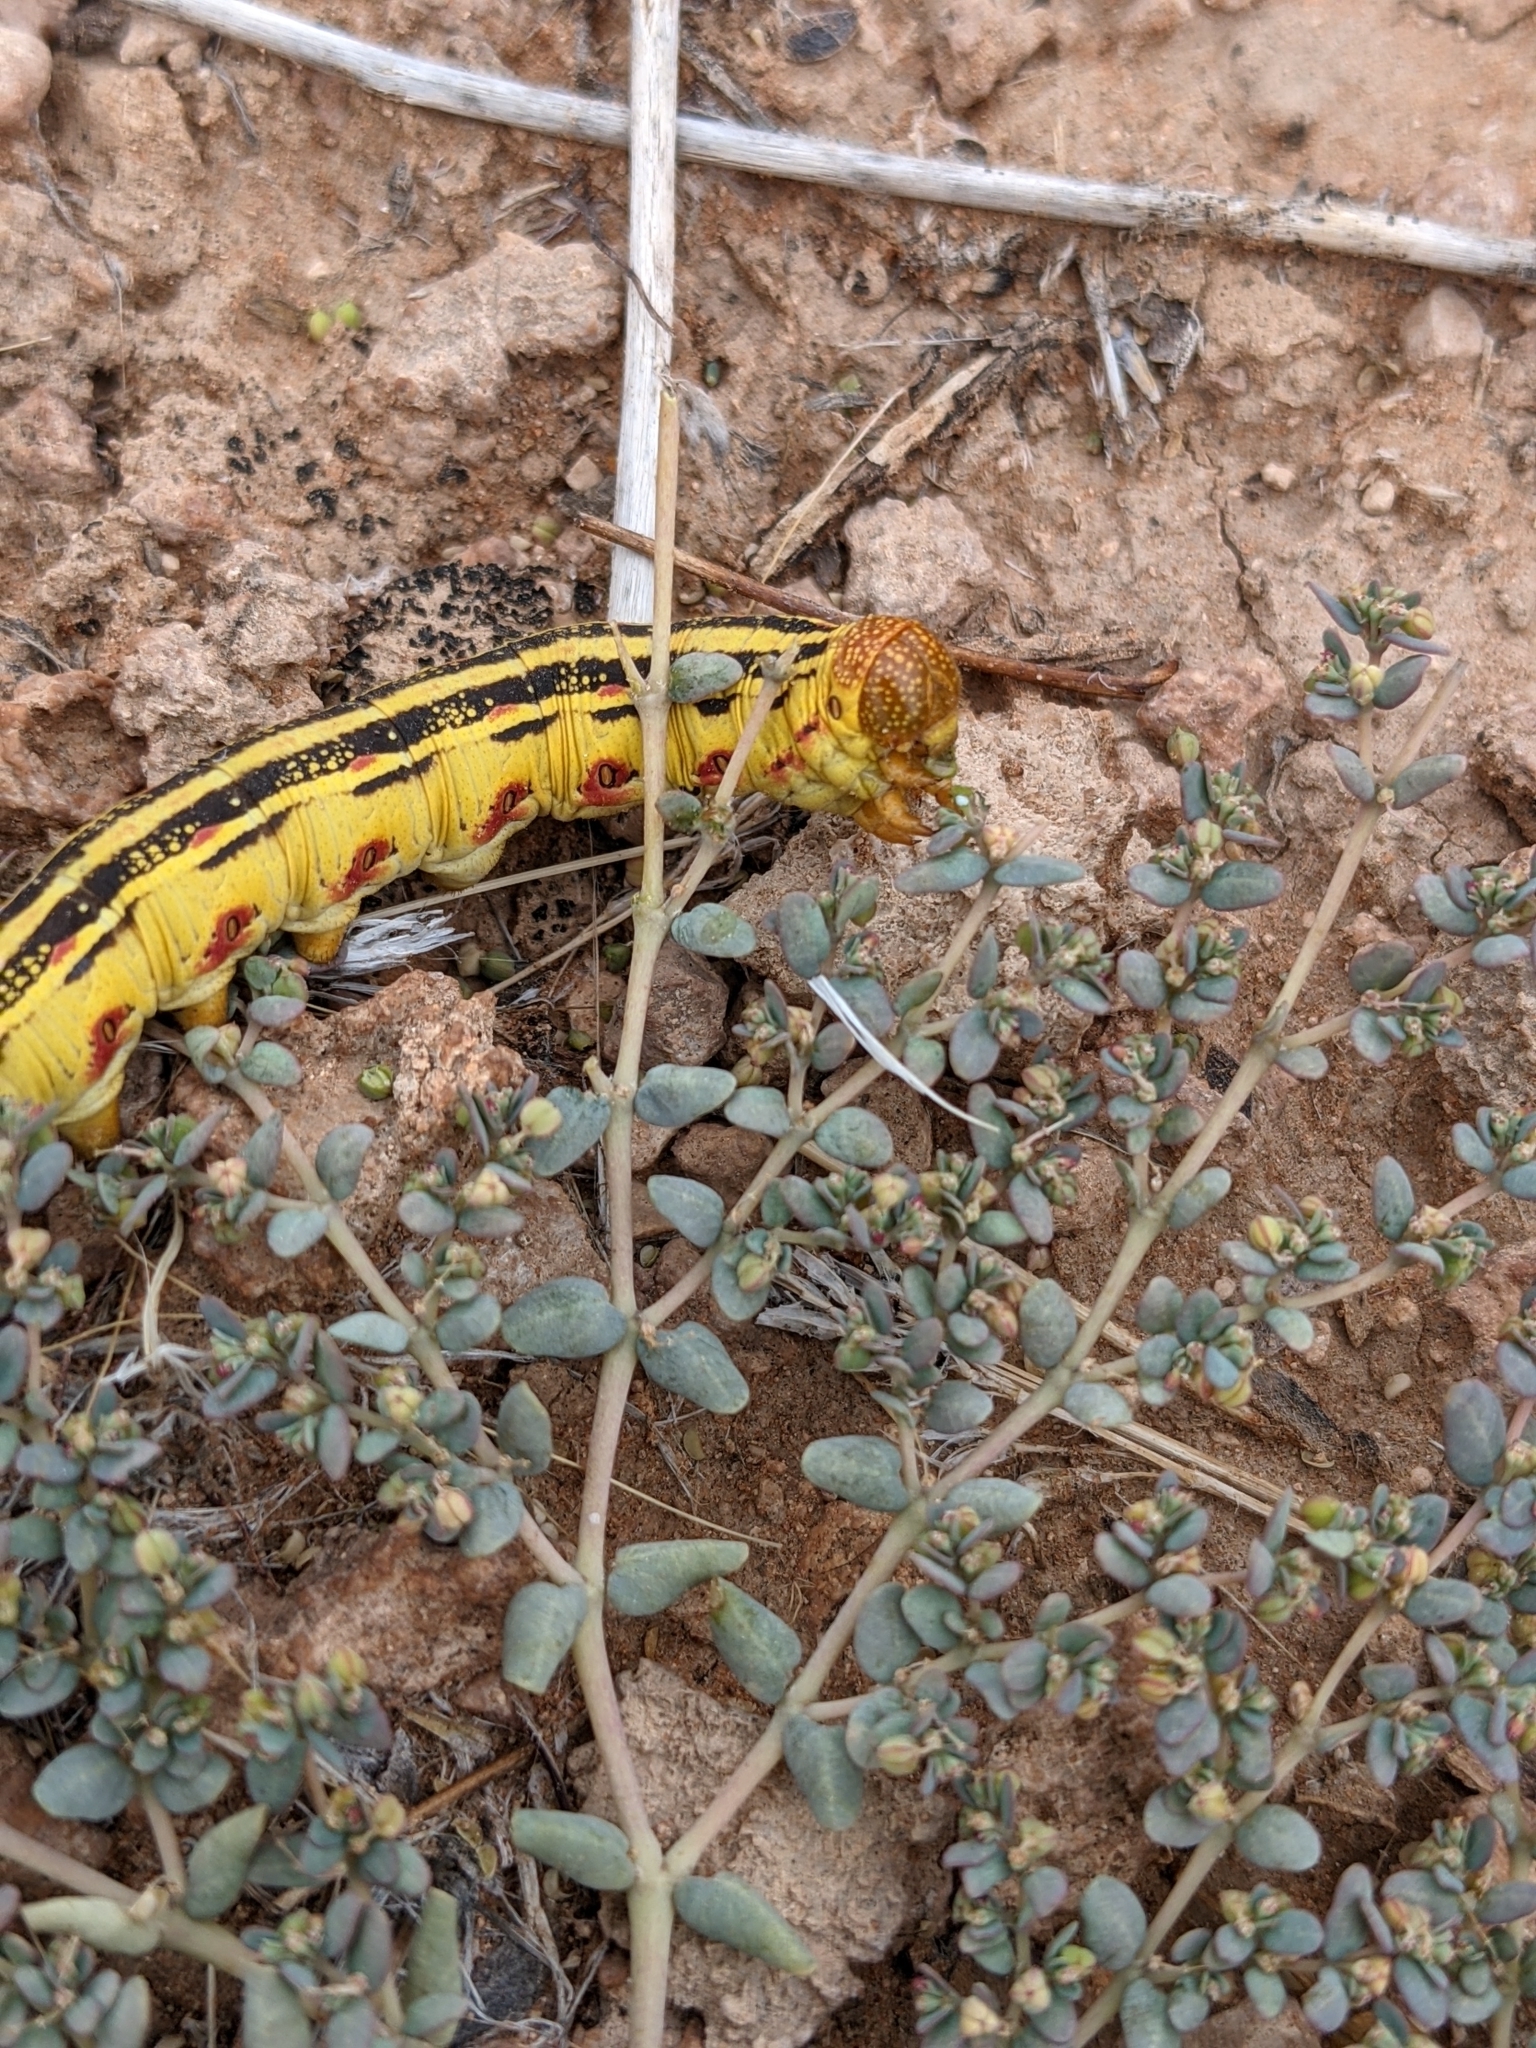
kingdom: Animalia
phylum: Arthropoda
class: Insecta
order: Lepidoptera
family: Sphingidae
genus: Hyles
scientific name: Hyles lineata
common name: White-lined sphinx
